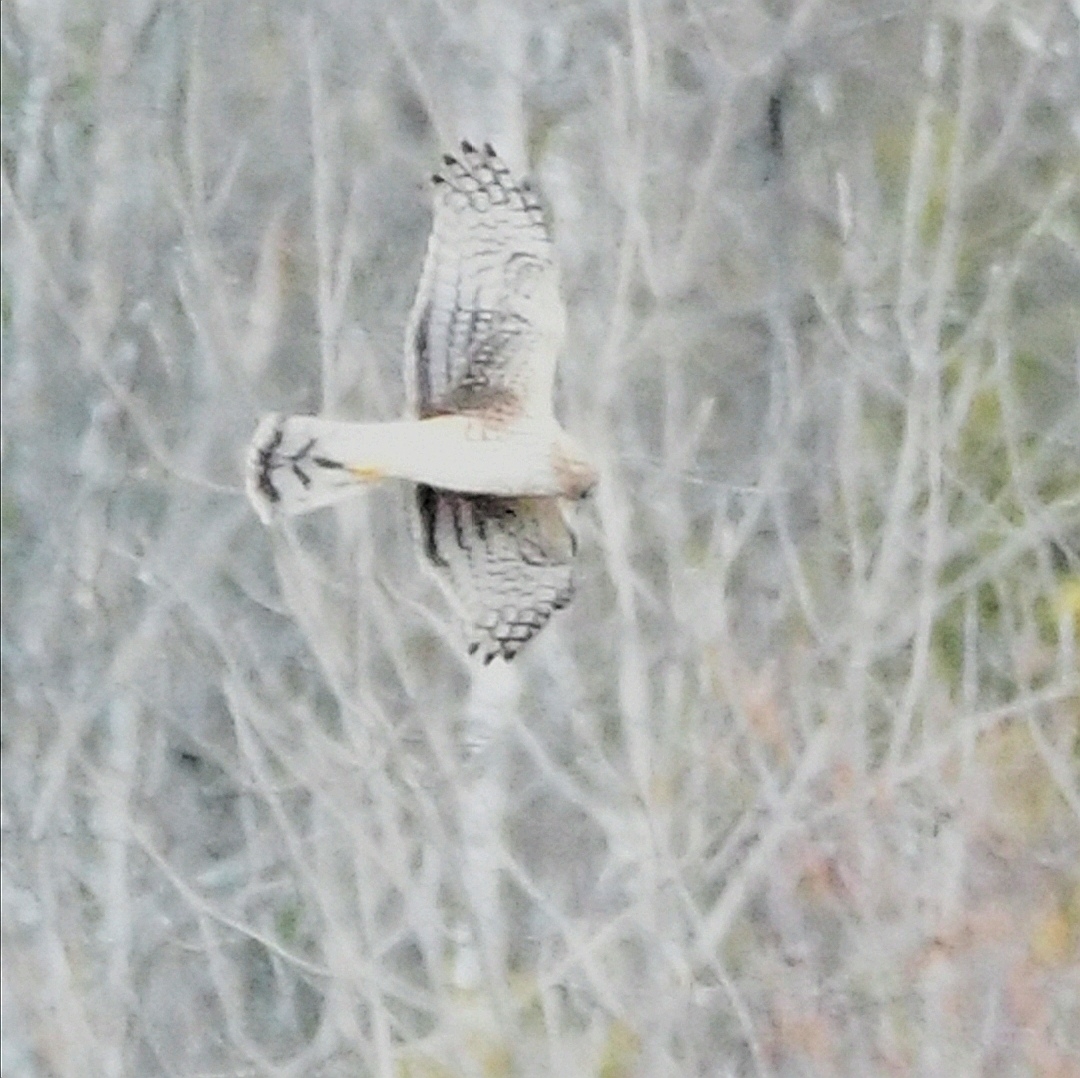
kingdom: Animalia
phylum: Chordata
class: Aves
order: Accipitriformes
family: Accipitridae
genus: Circus
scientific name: Circus cyaneus
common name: Hen harrier
